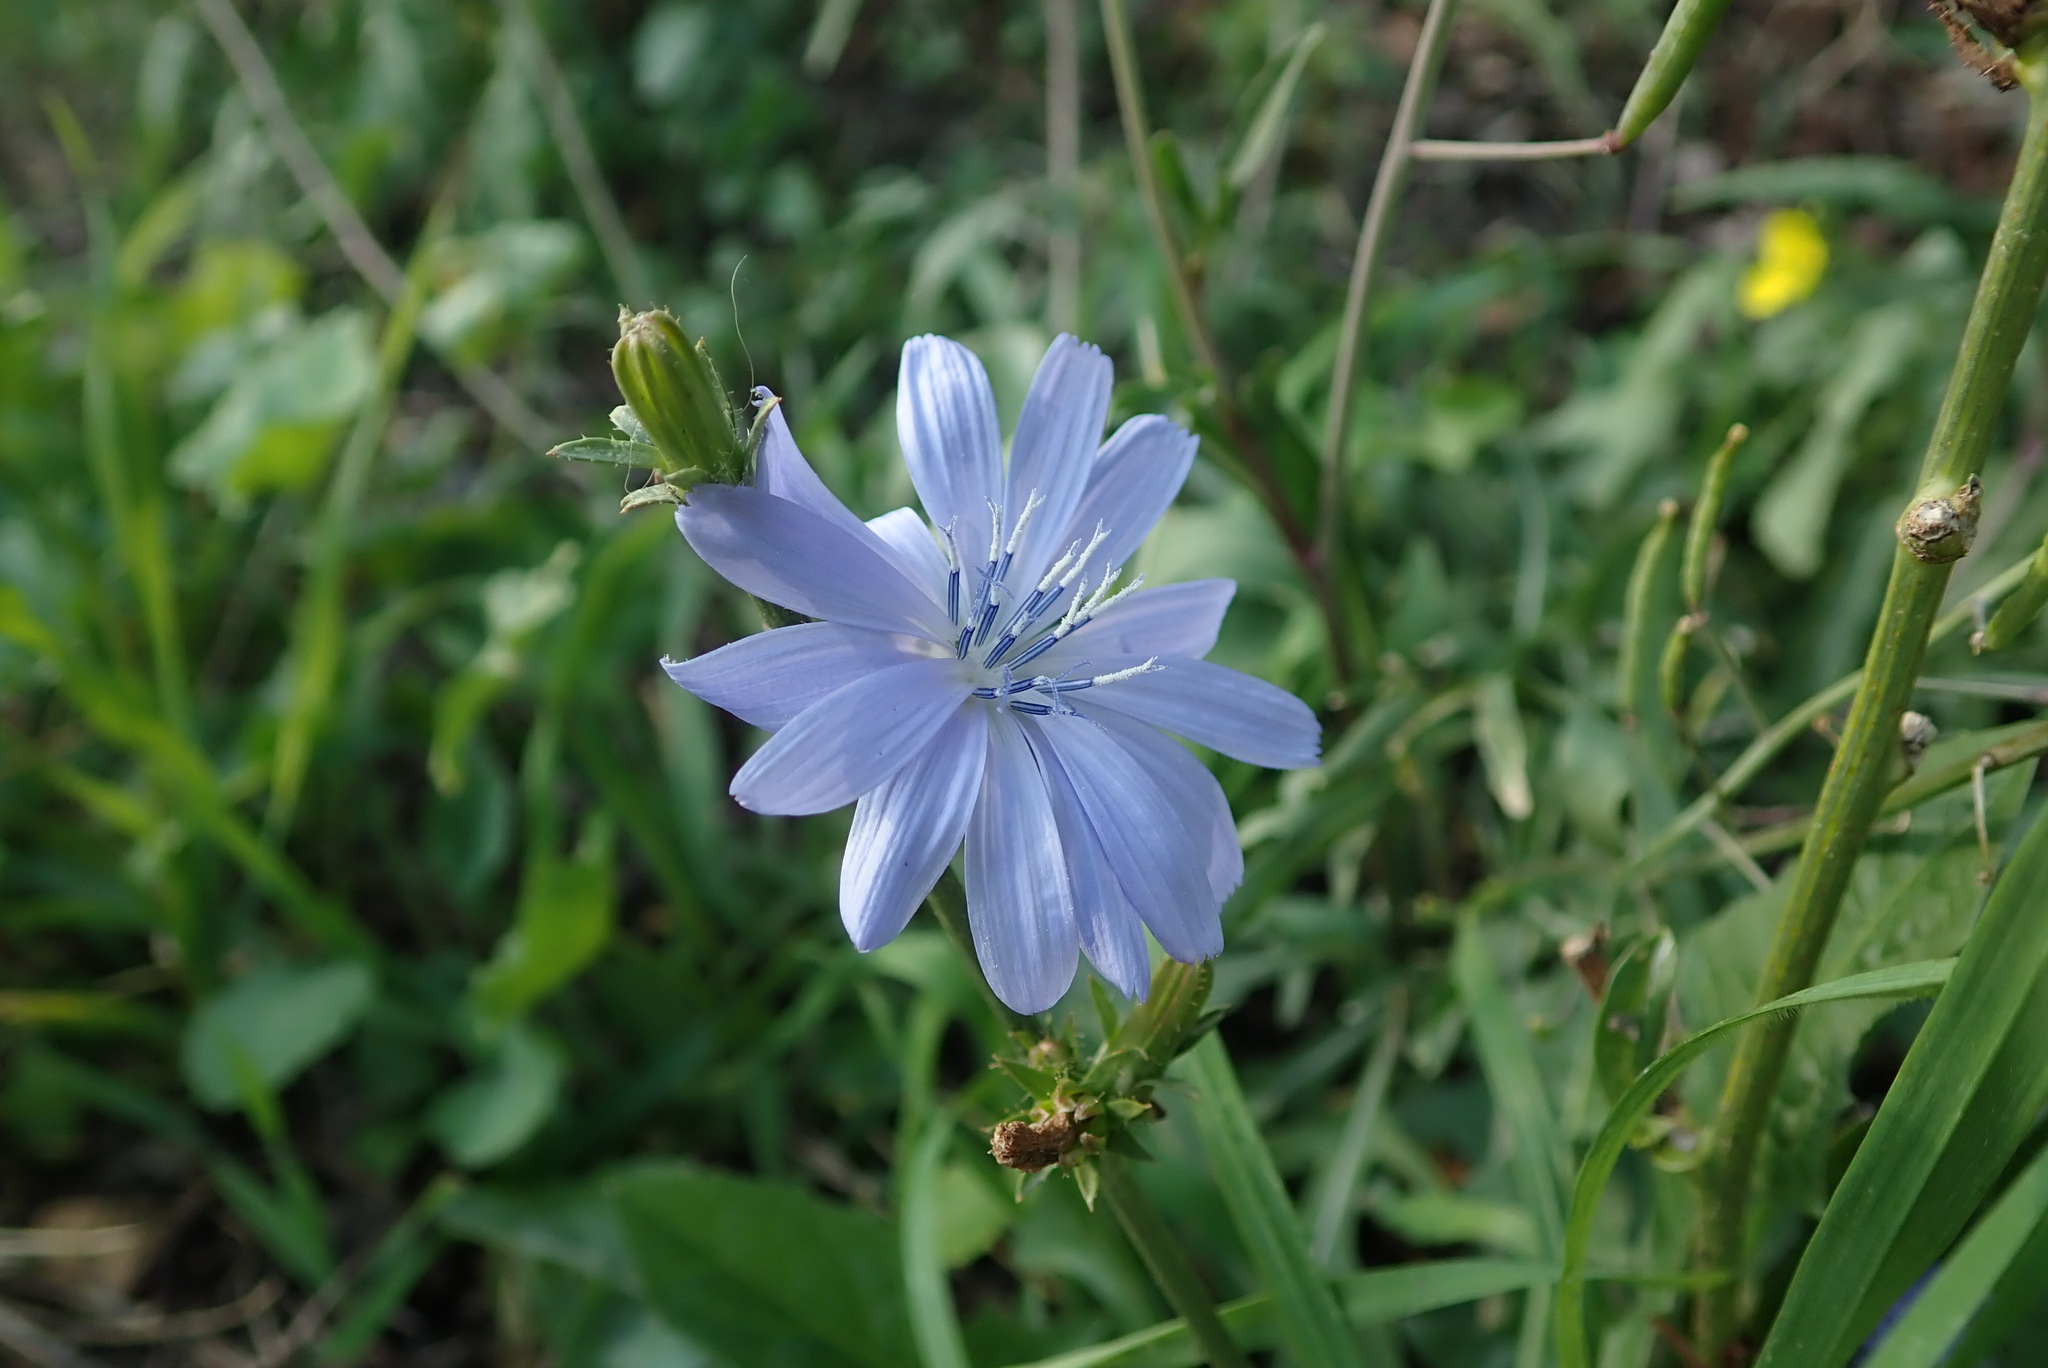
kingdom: Plantae
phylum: Tracheophyta
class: Magnoliopsida
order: Asterales
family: Asteraceae
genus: Cichorium
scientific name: Cichorium intybus
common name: Chicory
